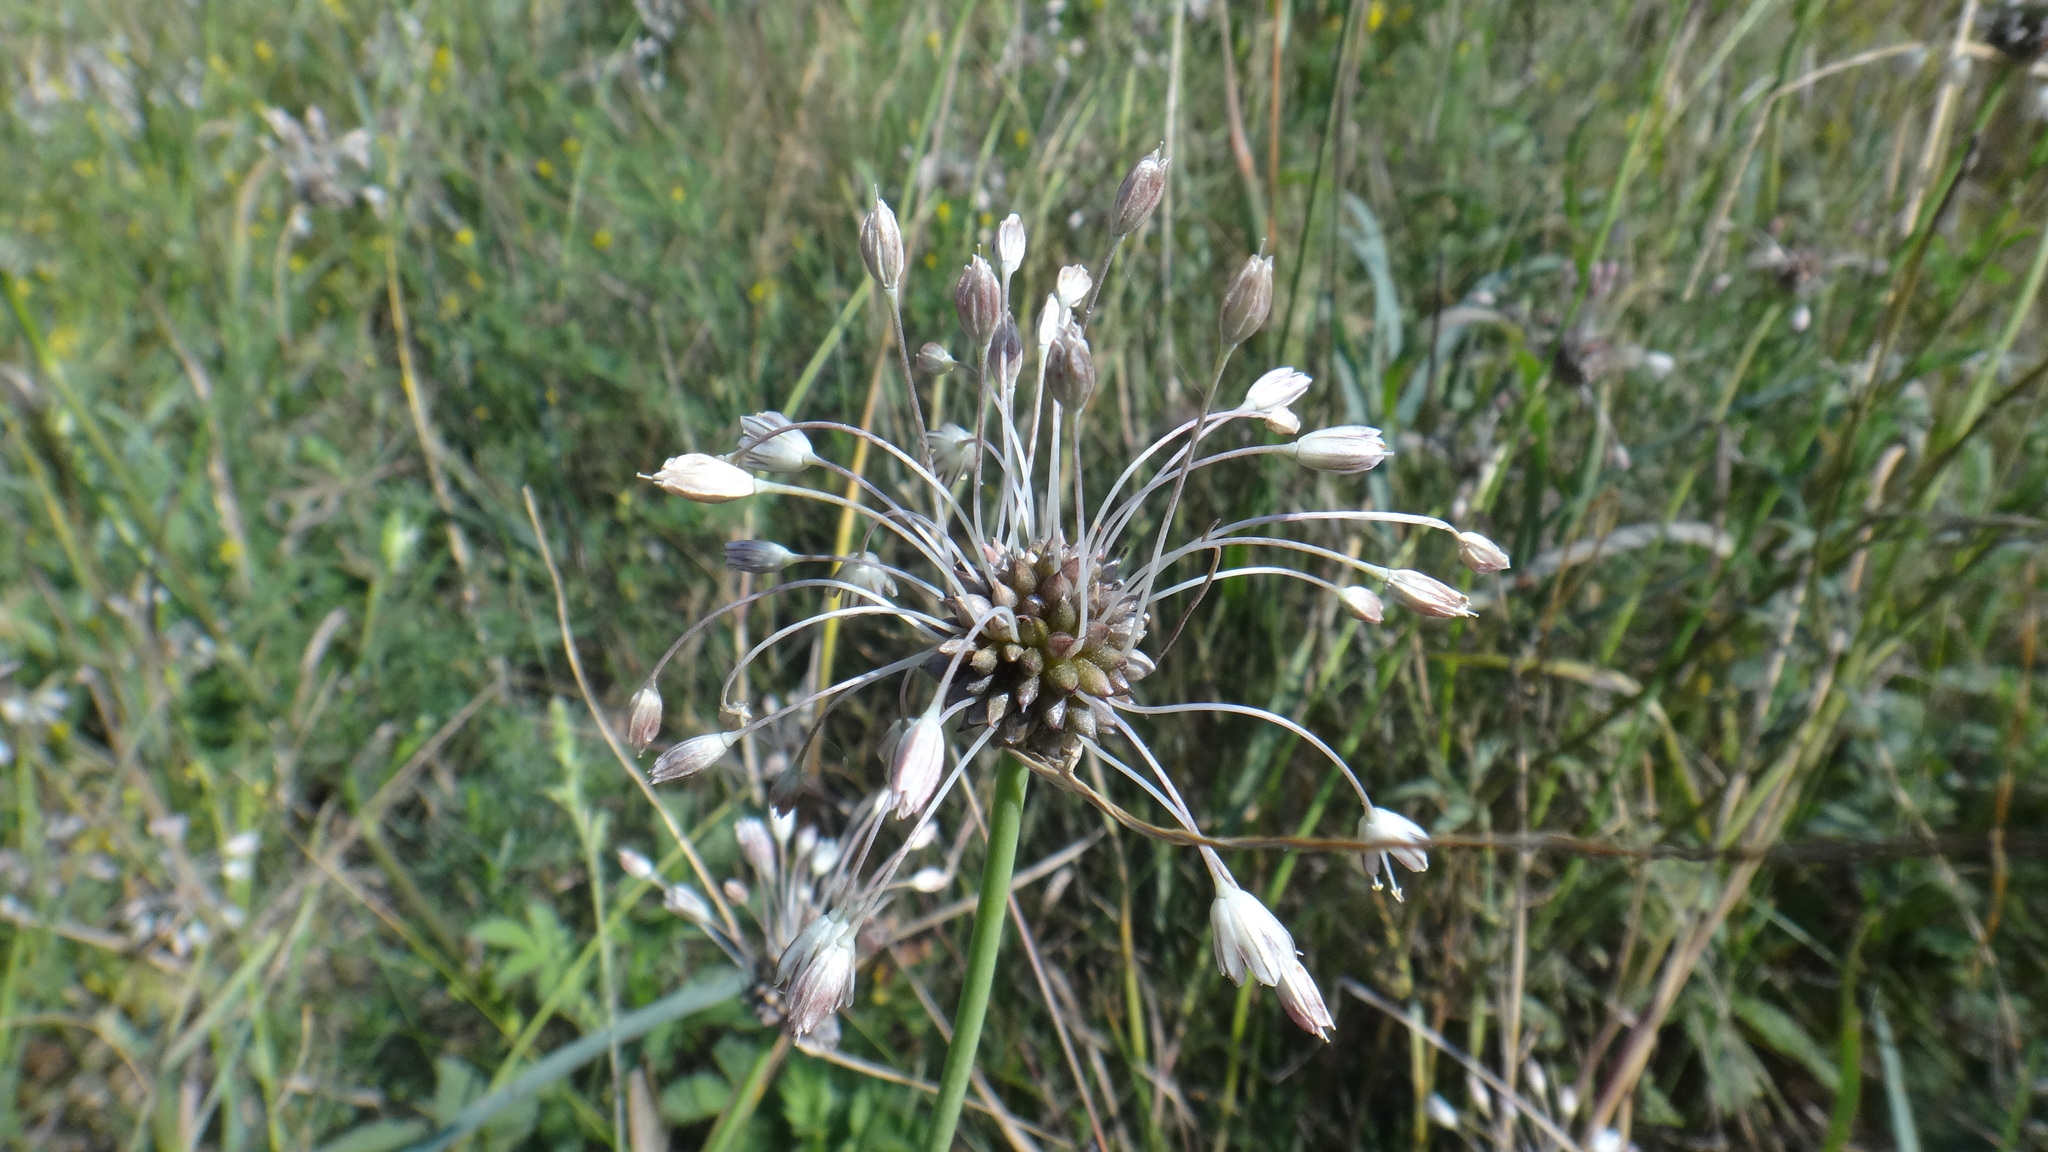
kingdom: Plantae
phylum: Tracheophyta
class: Liliopsida
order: Asparagales
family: Amaryllidaceae
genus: Allium
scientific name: Allium oleraceum
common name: Field garlic
